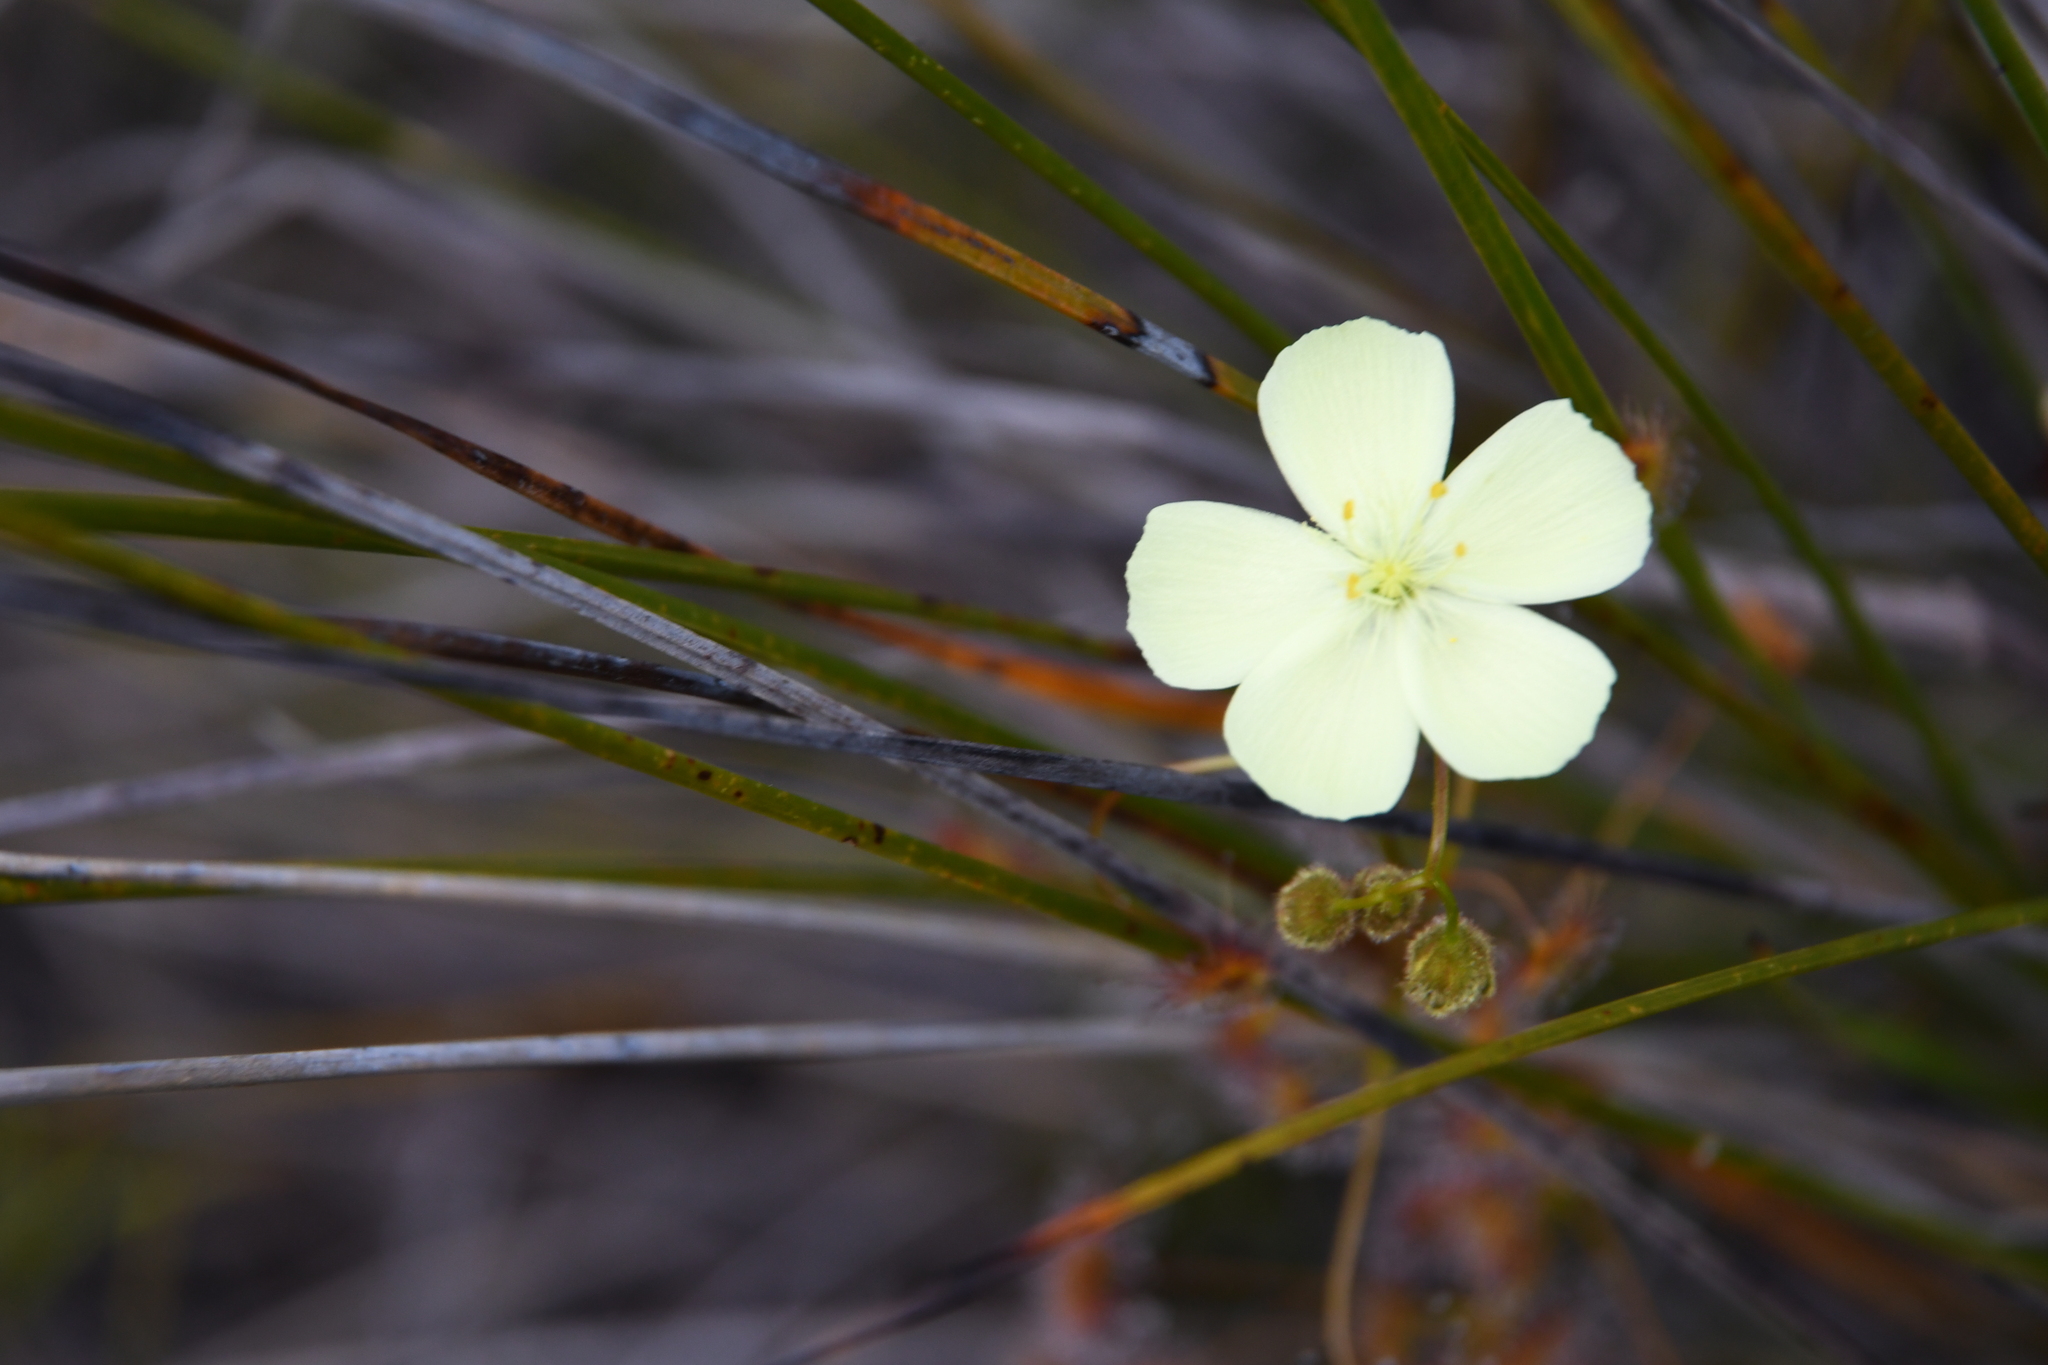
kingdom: Plantae
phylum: Tracheophyta
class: Magnoliopsida
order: Caryophyllales
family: Droseraceae
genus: Drosera
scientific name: Drosera sulphurea
